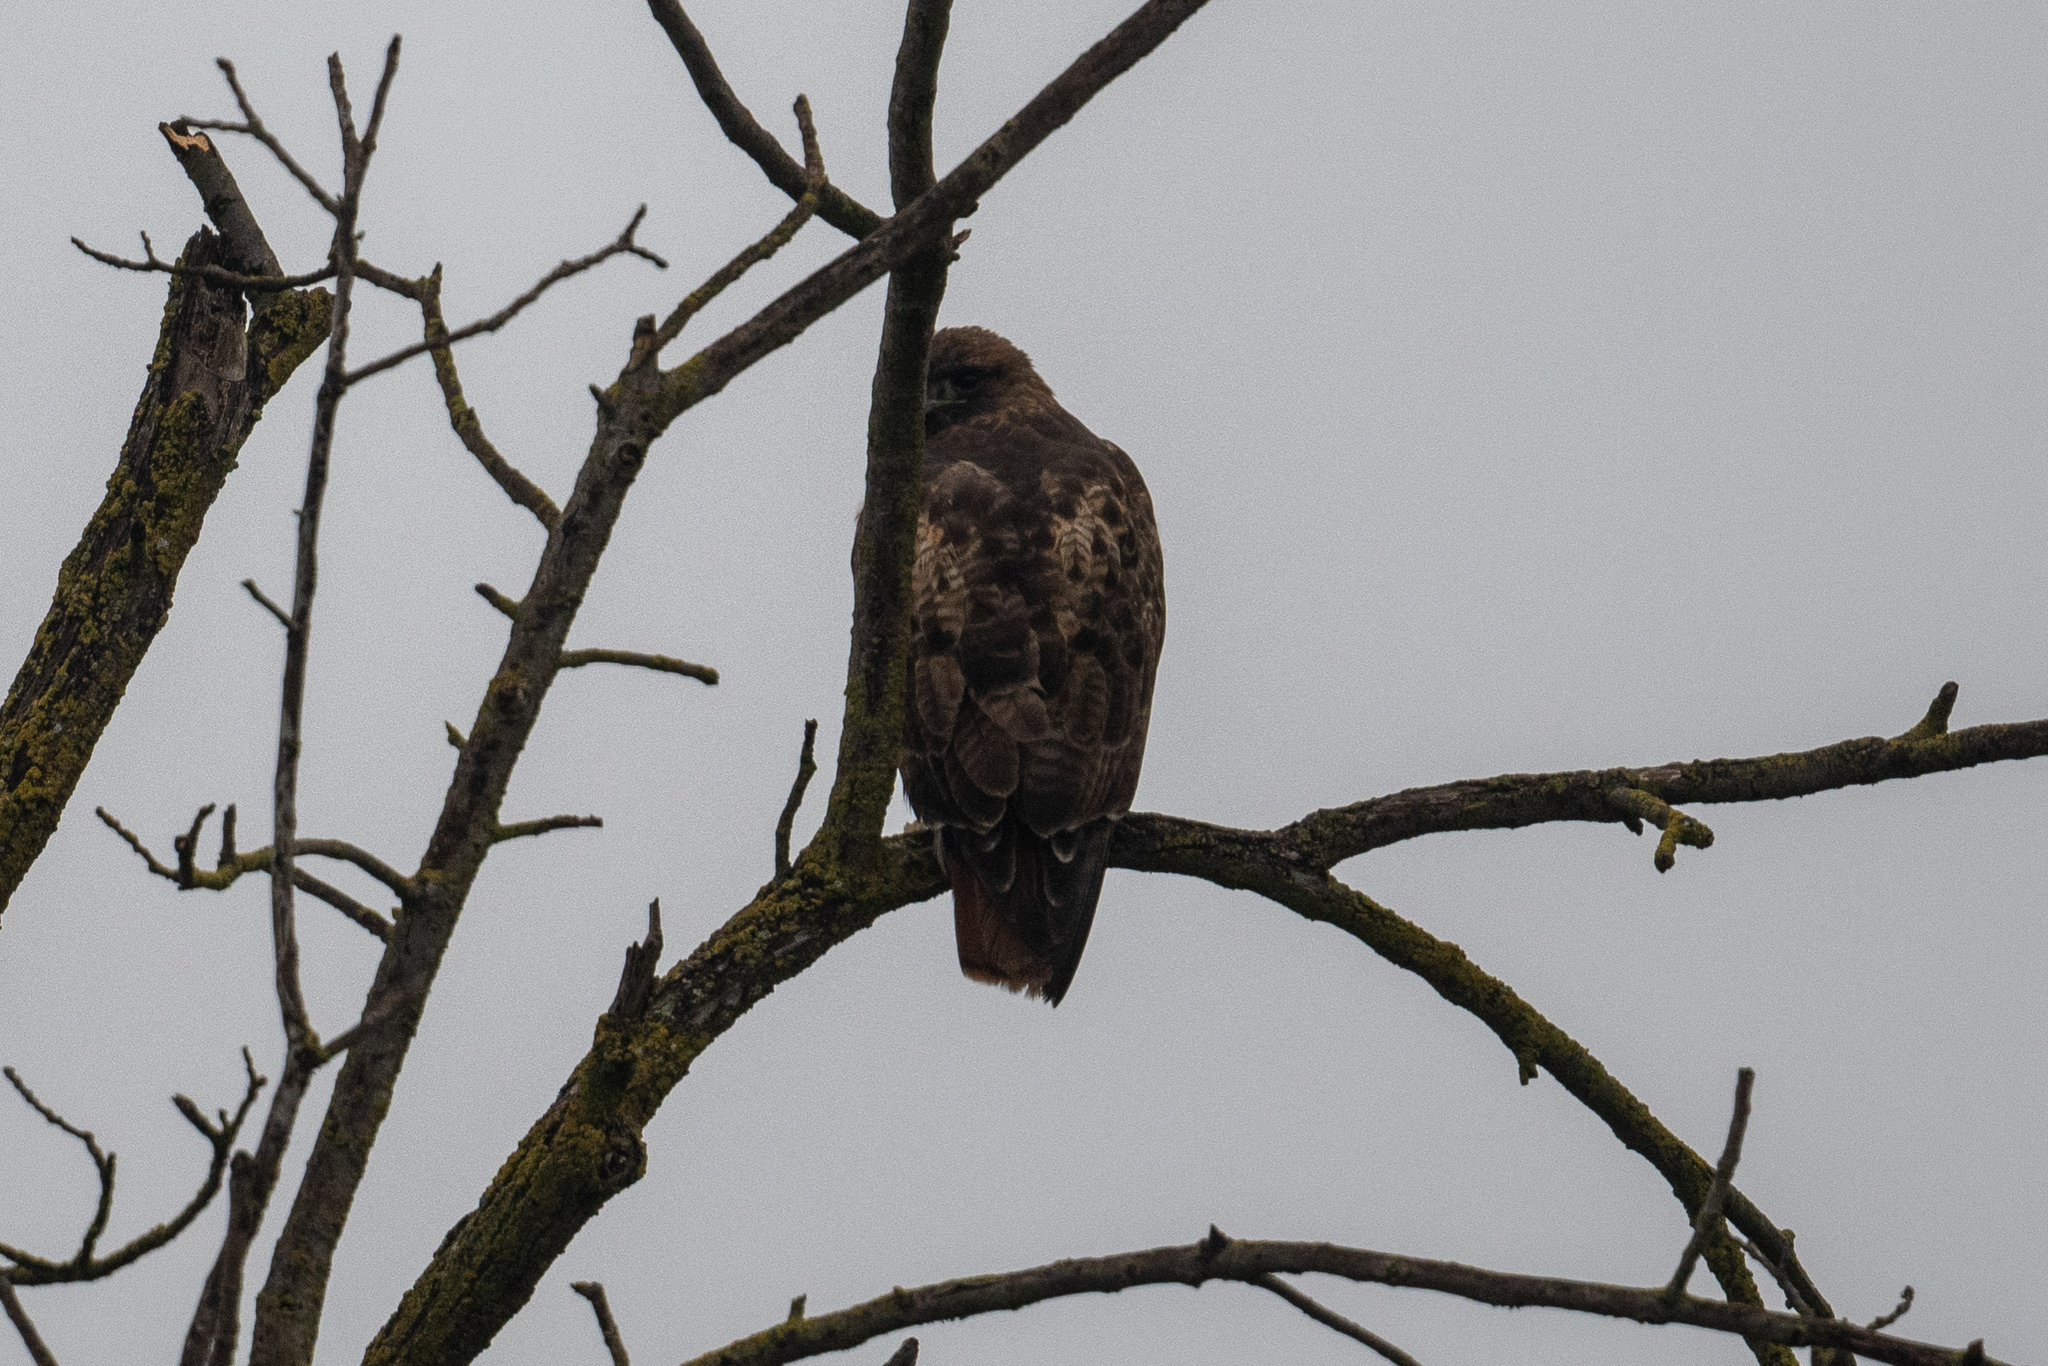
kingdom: Animalia
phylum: Chordata
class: Aves
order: Accipitriformes
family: Accipitridae
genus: Buteo
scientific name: Buteo jamaicensis
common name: Red-tailed hawk
